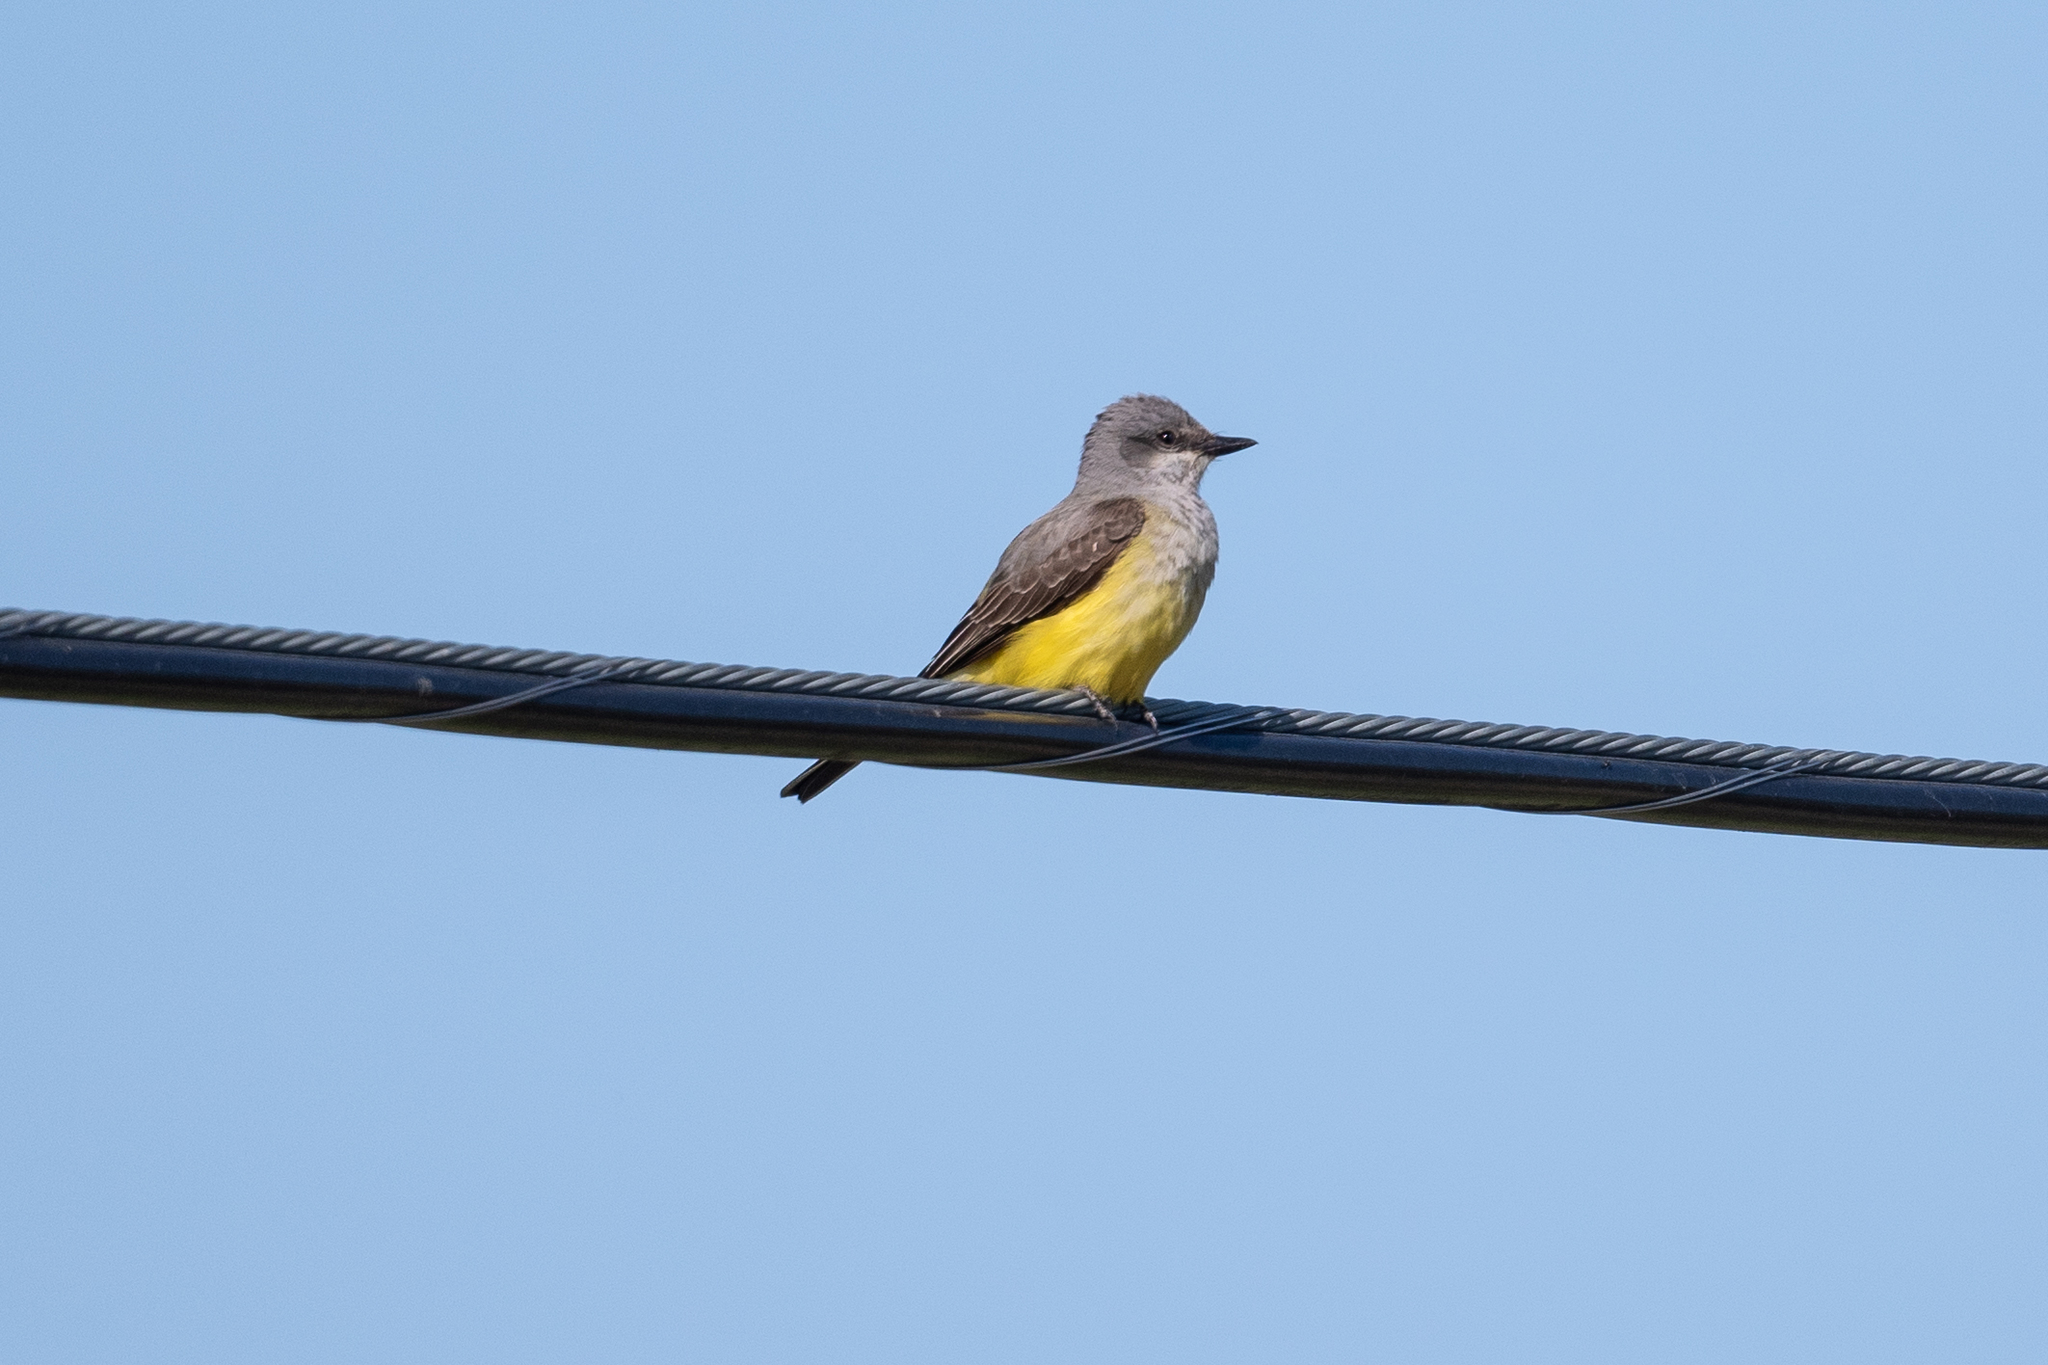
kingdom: Animalia
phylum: Chordata
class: Aves
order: Passeriformes
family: Tyrannidae
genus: Tyrannus
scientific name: Tyrannus verticalis
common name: Western kingbird
